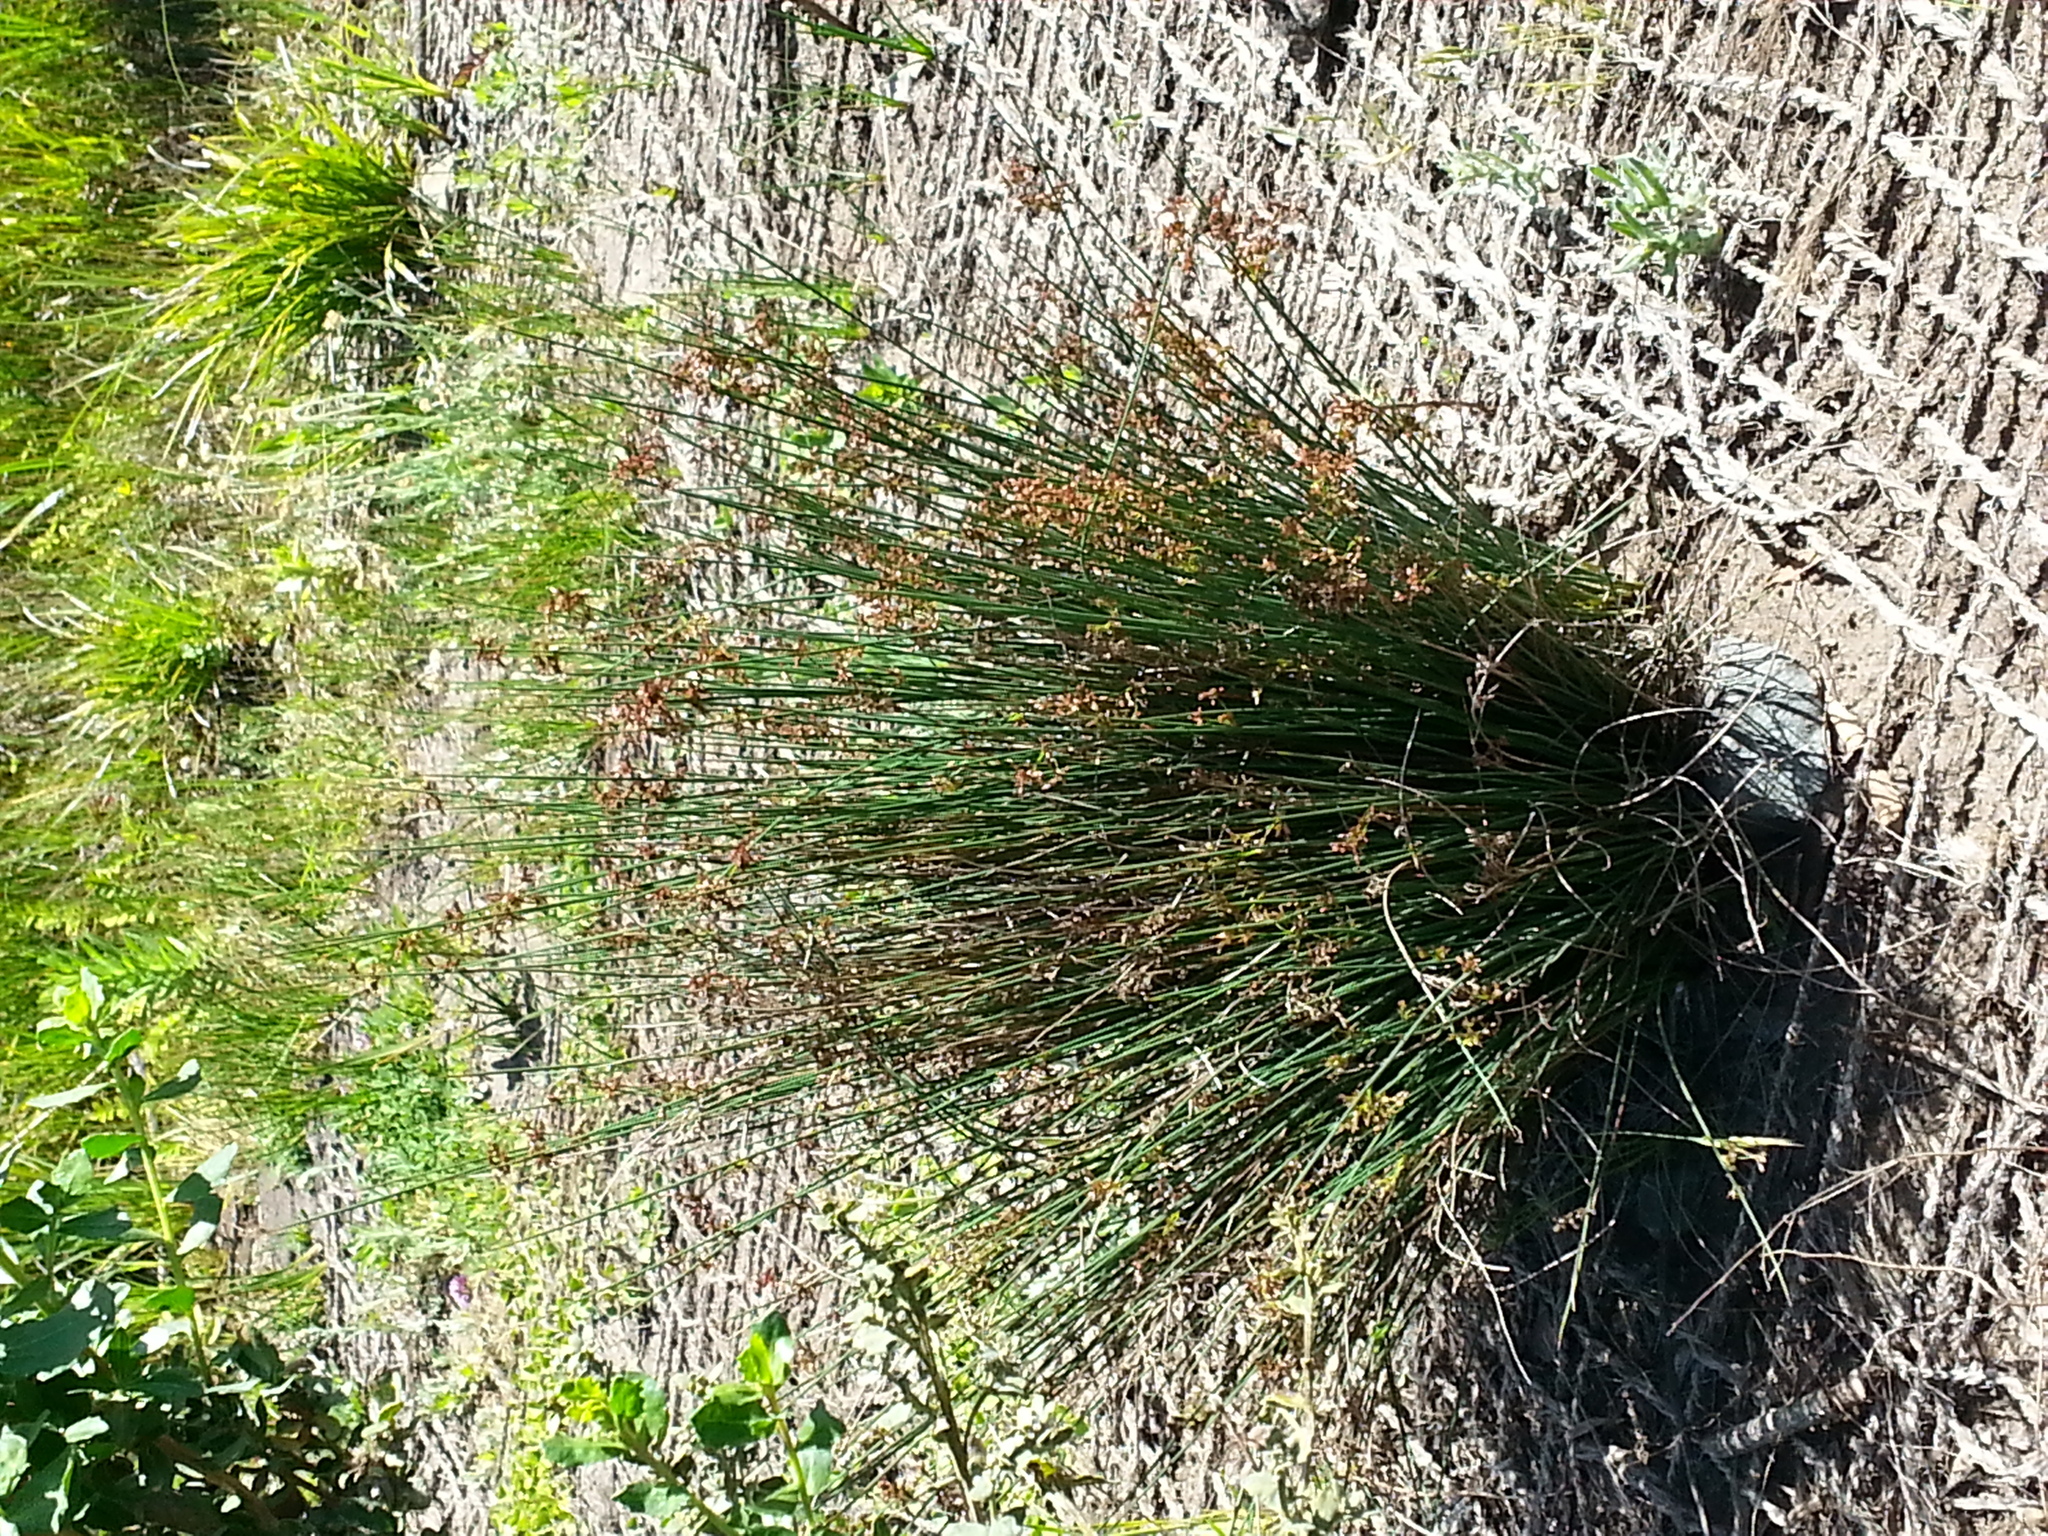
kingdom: Plantae
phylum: Tracheophyta
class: Liliopsida
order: Poales
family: Juncaceae
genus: Juncus
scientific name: Juncus patens
